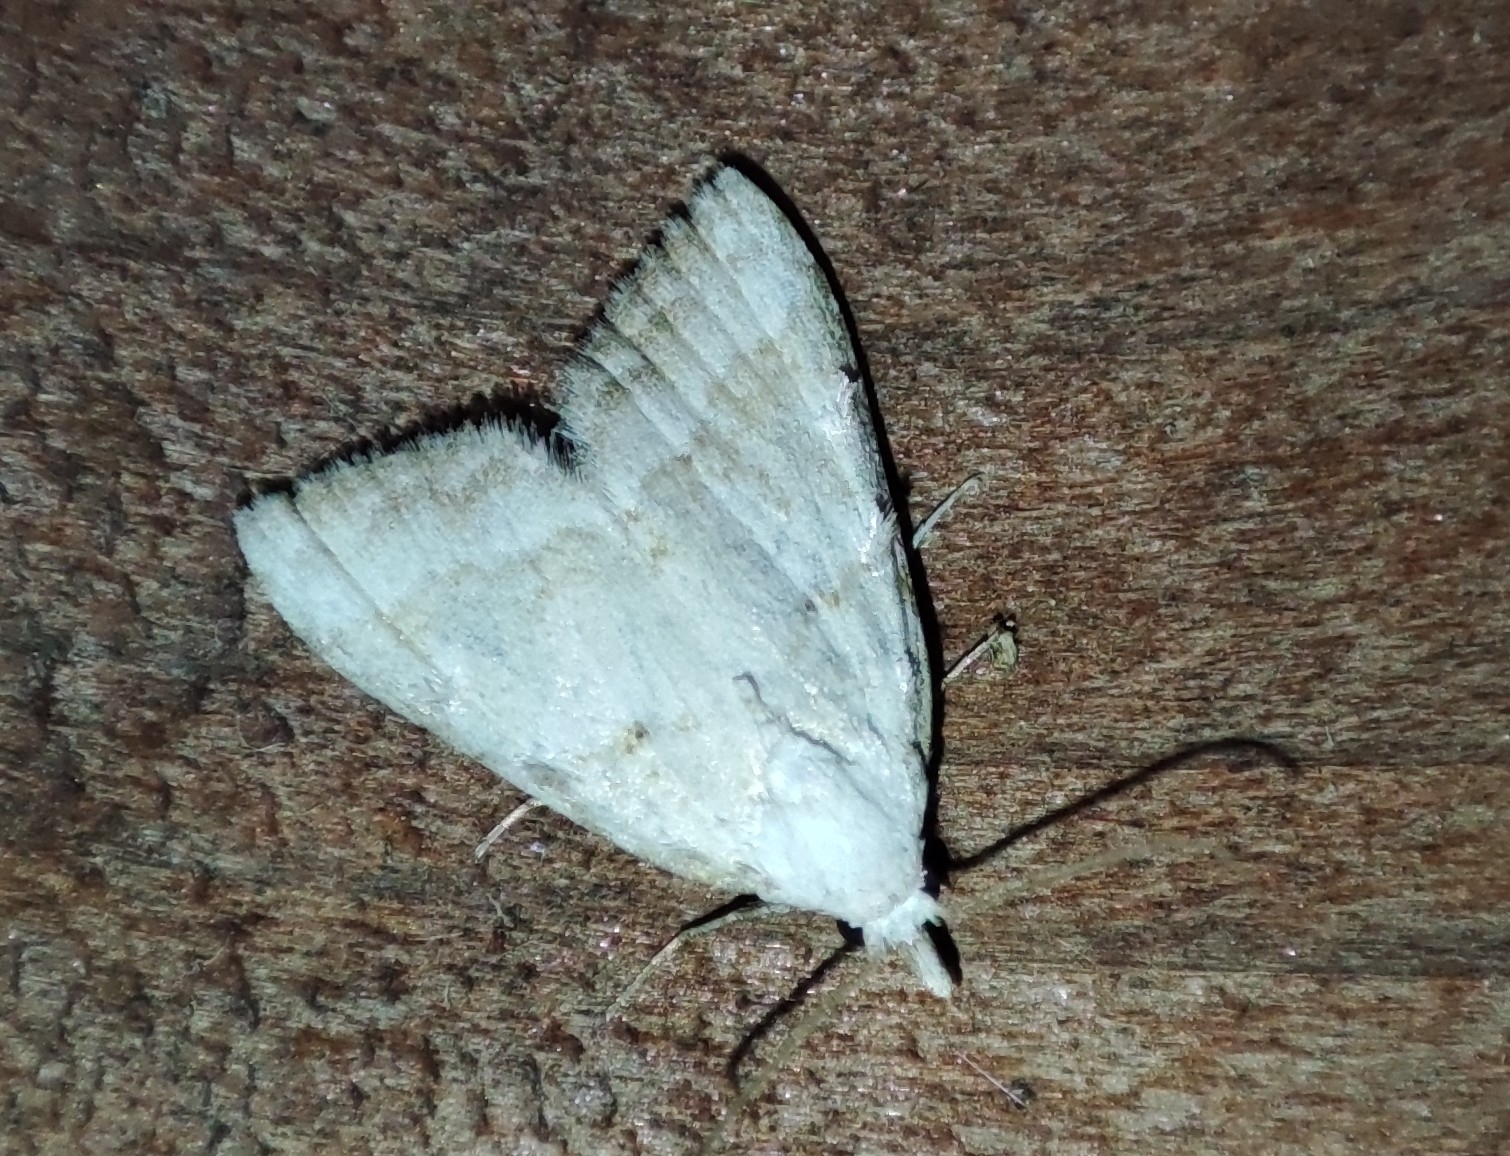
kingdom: Animalia
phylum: Arthropoda
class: Insecta
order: Lepidoptera
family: Nolidae
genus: Nola
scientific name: Nola aerugula
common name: Scarce black arches
